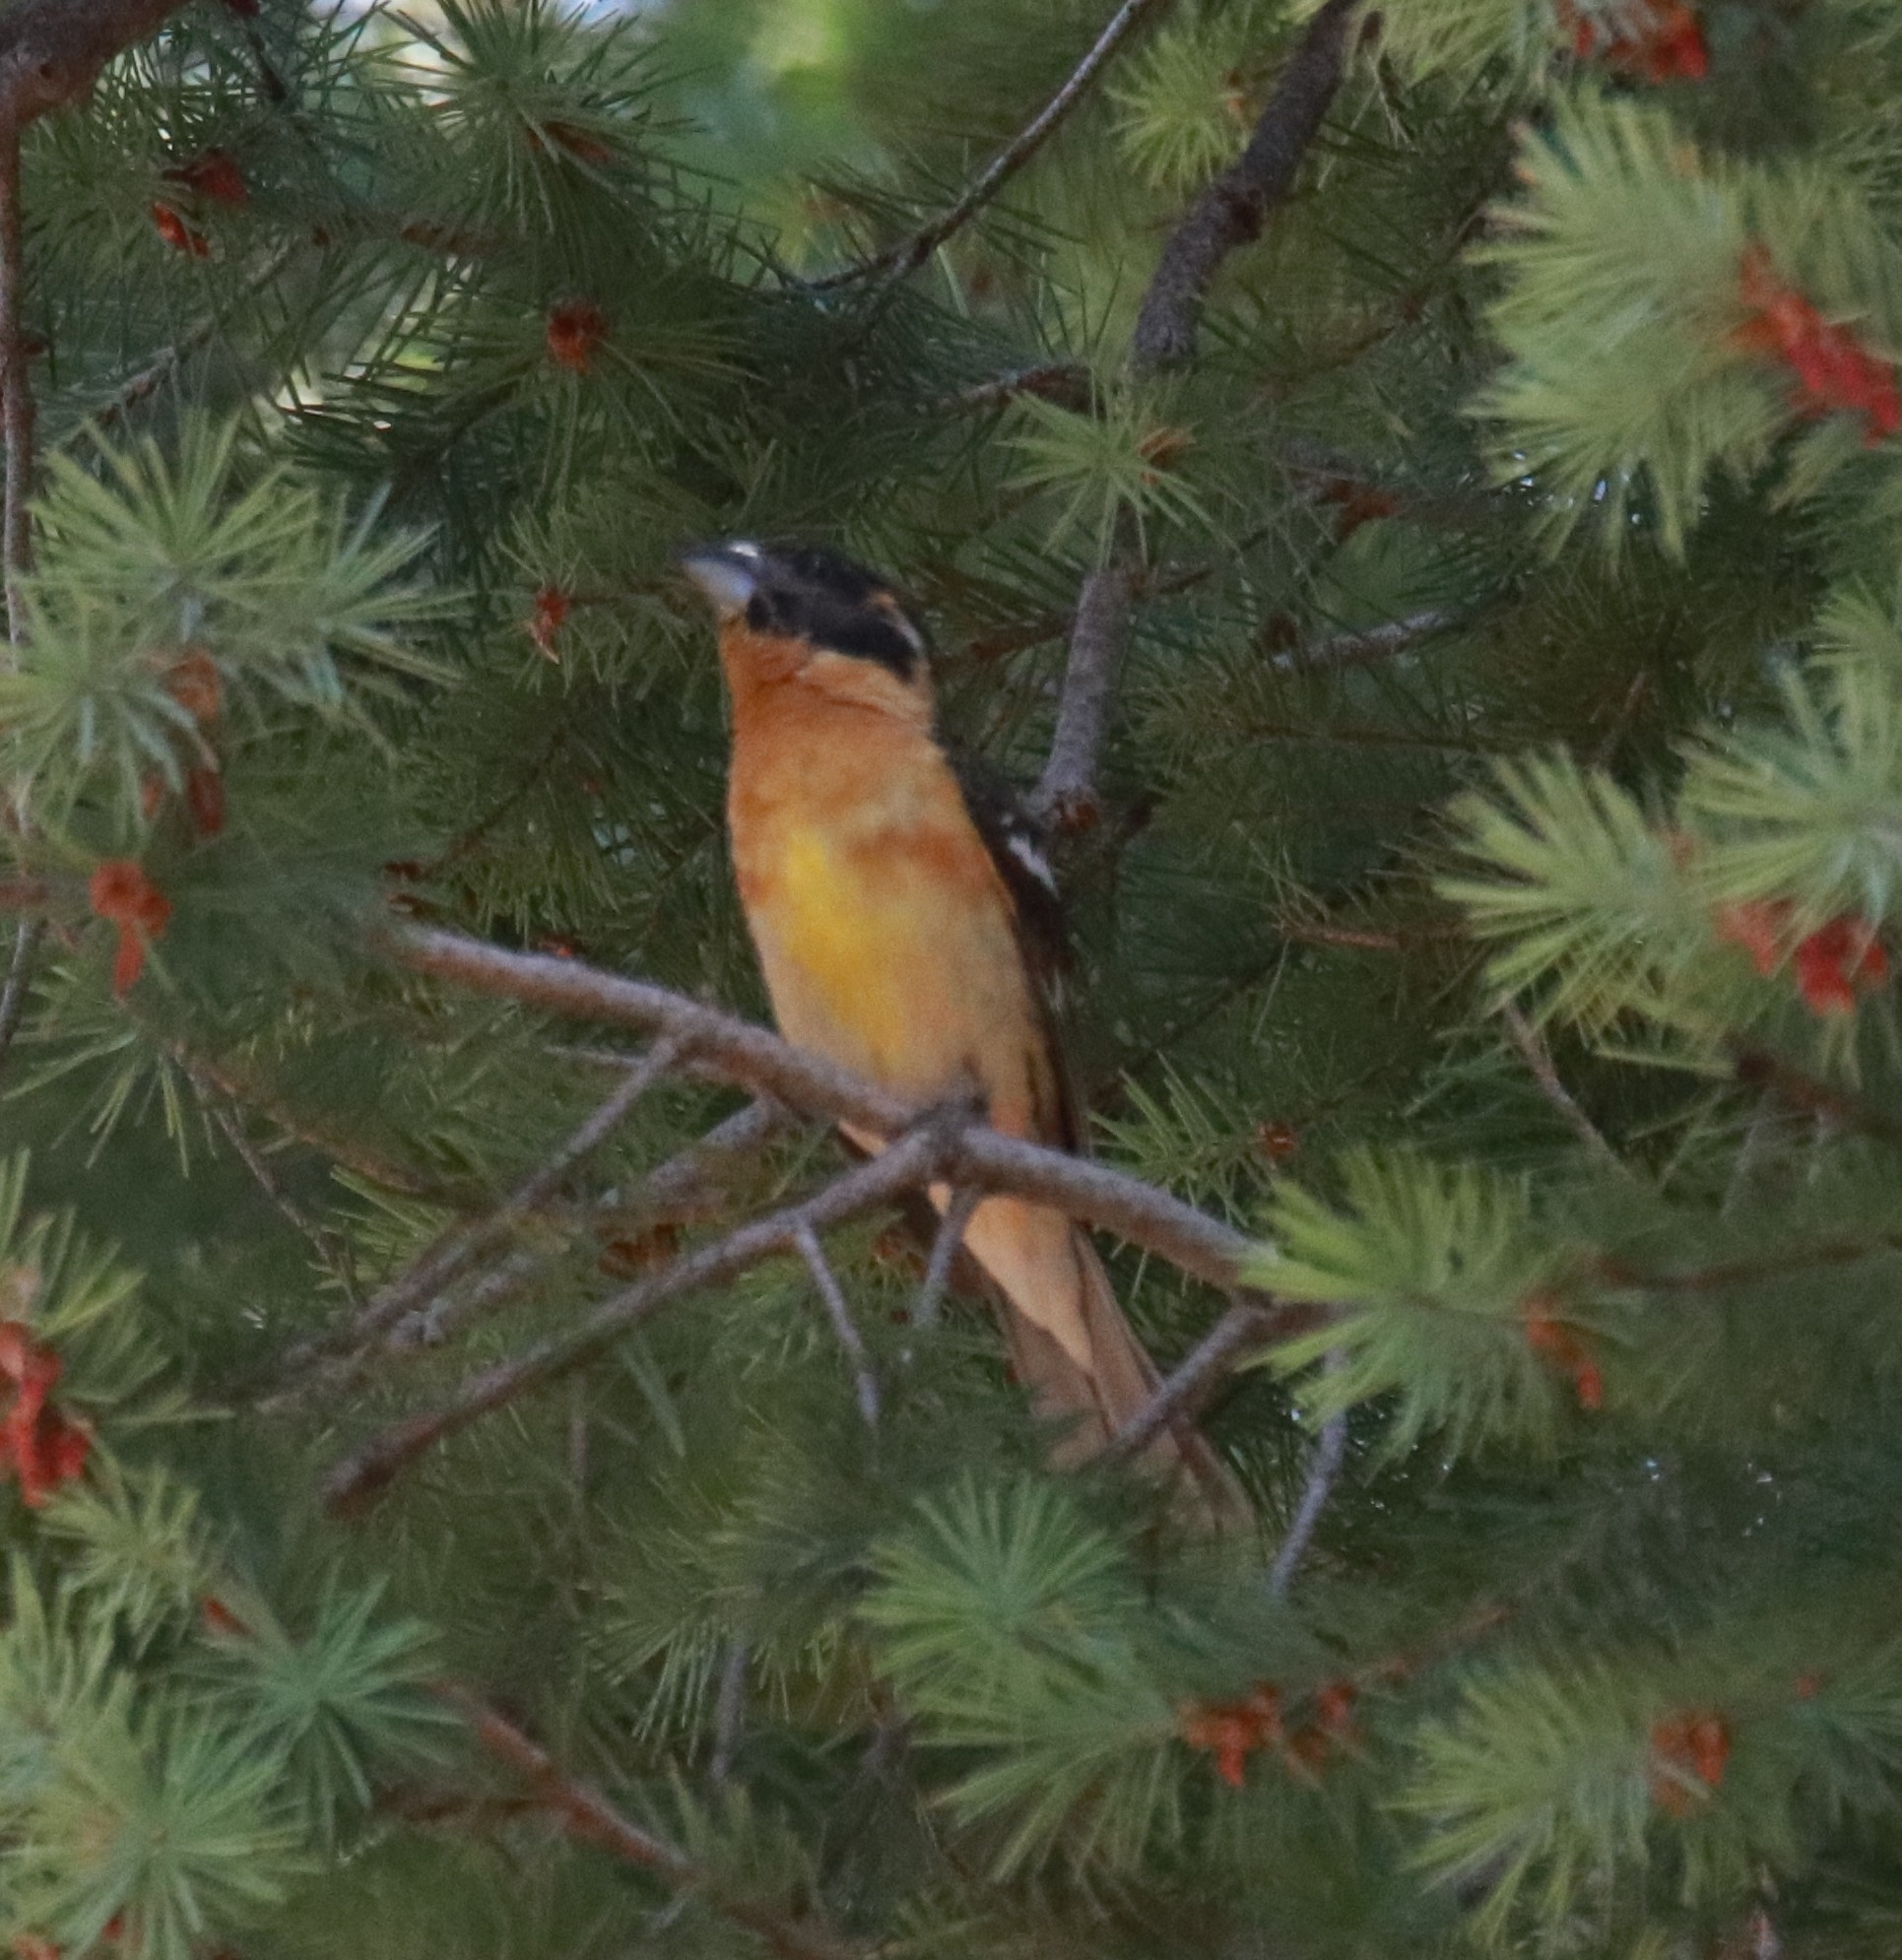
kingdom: Animalia
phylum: Chordata
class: Aves
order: Passeriformes
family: Cardinalidae
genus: Pheucticus
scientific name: Pheucticus melanocephalus
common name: Black-headed grosbeak
